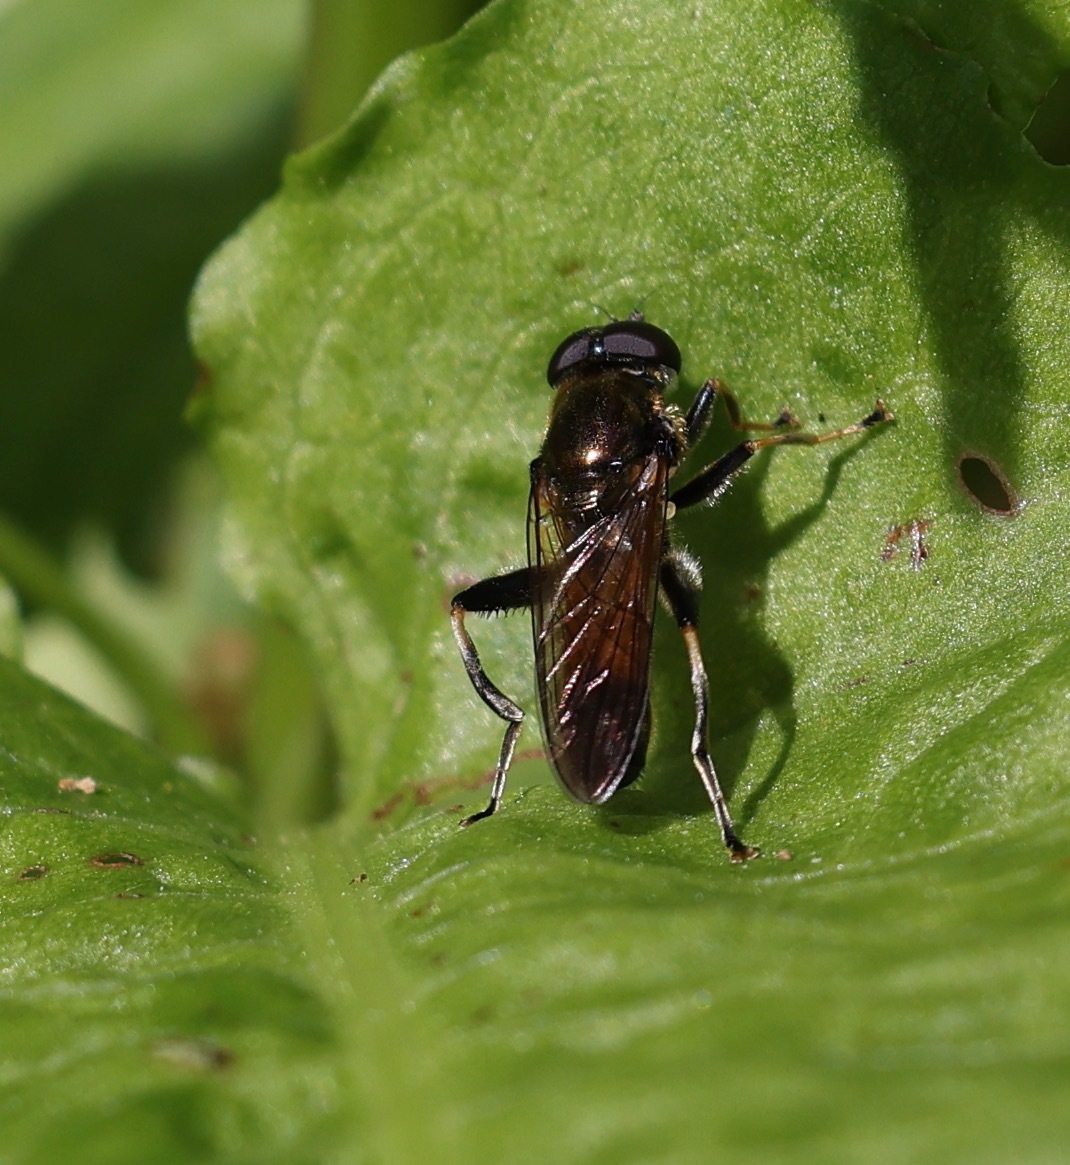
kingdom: Animalia
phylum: Arthropoda
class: Insecta
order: Diptera
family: Syrphidae
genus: Xylota
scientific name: Xylota segnis
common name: Brown-toed forest fly
